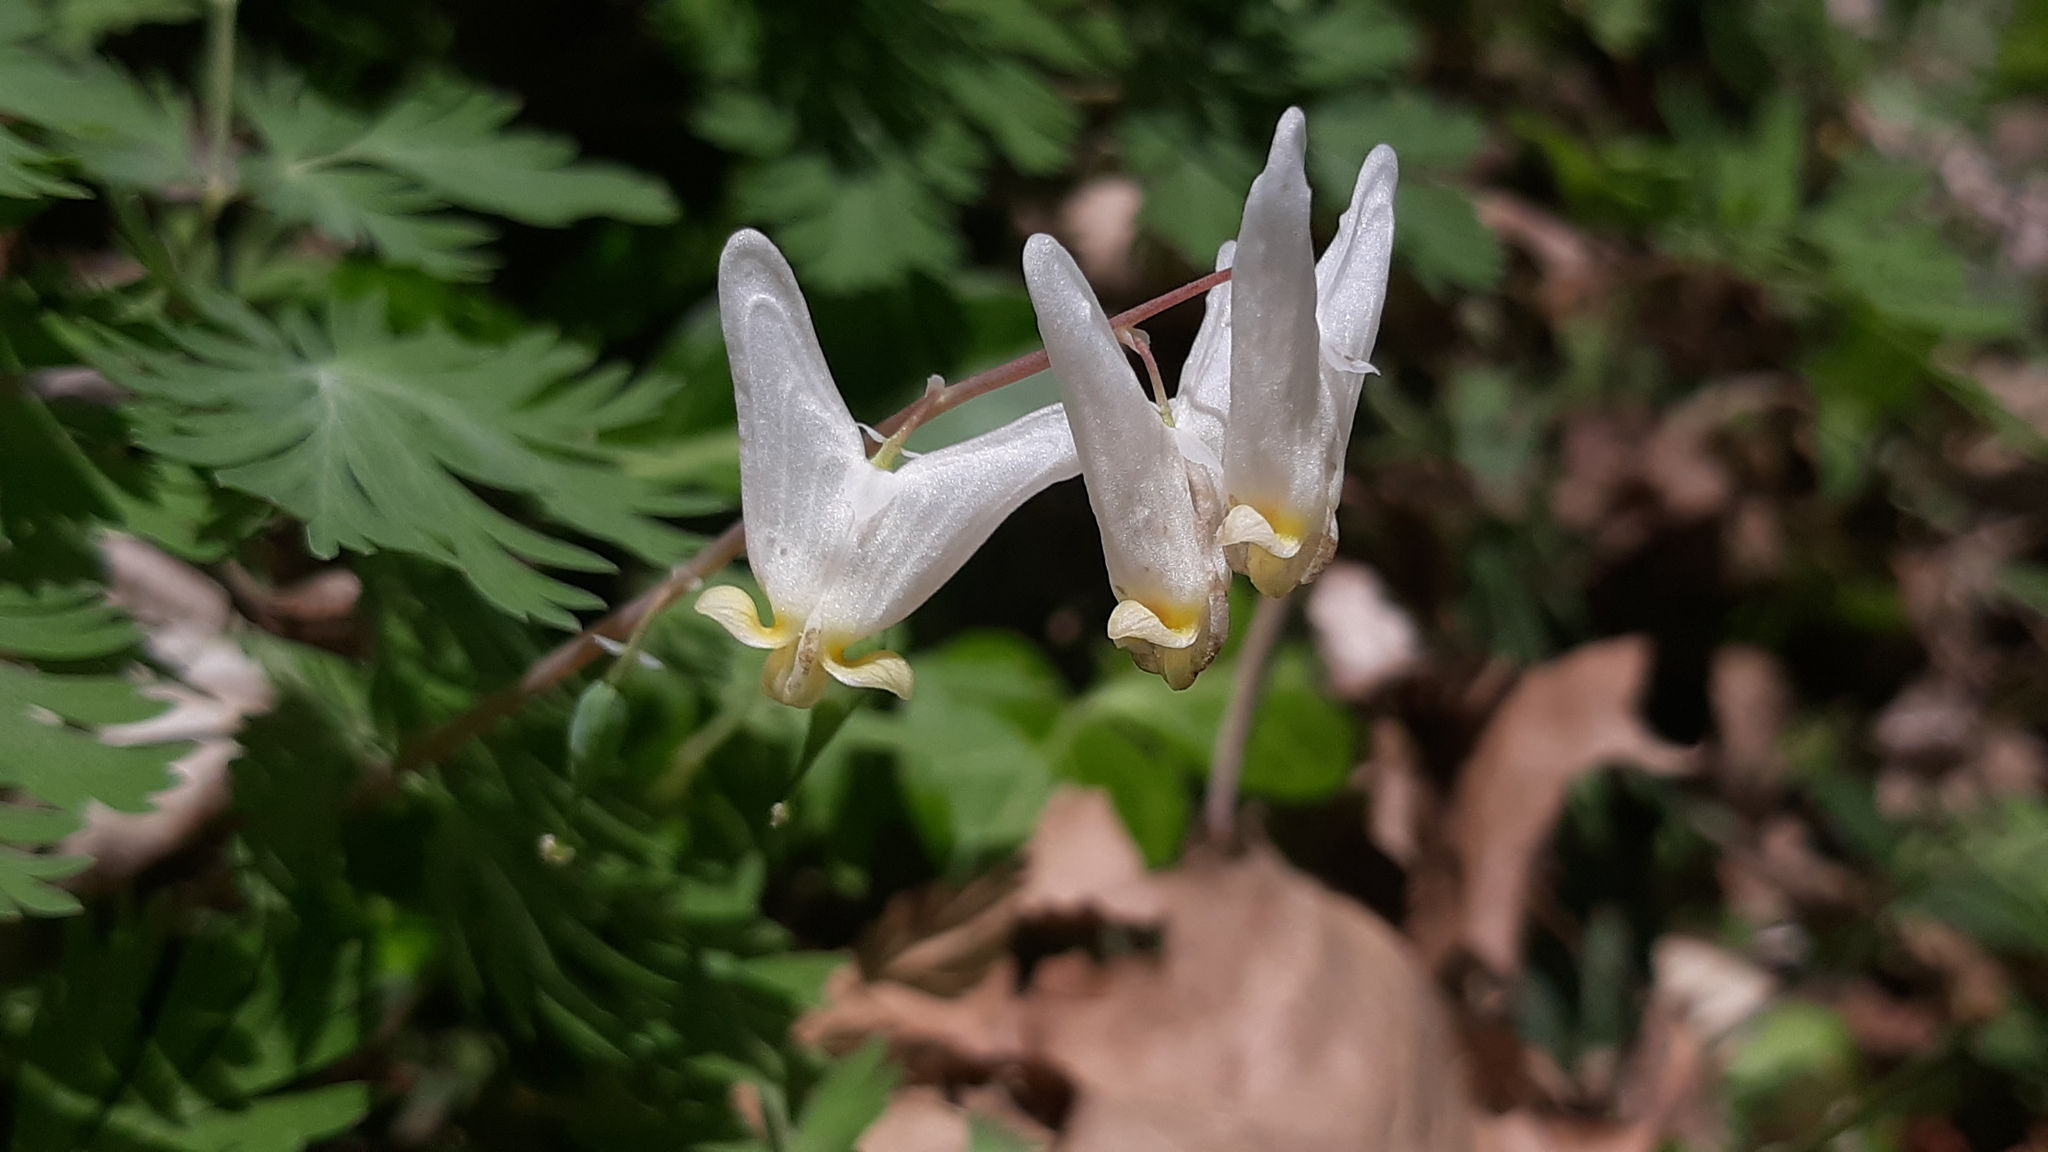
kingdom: Plantae
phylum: Tracheophyta
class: Magnoliopsida
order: Ranunculales
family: Papaveraceae
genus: Dicentra
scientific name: Dicentra cucullaria
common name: Dutchman's breeches
